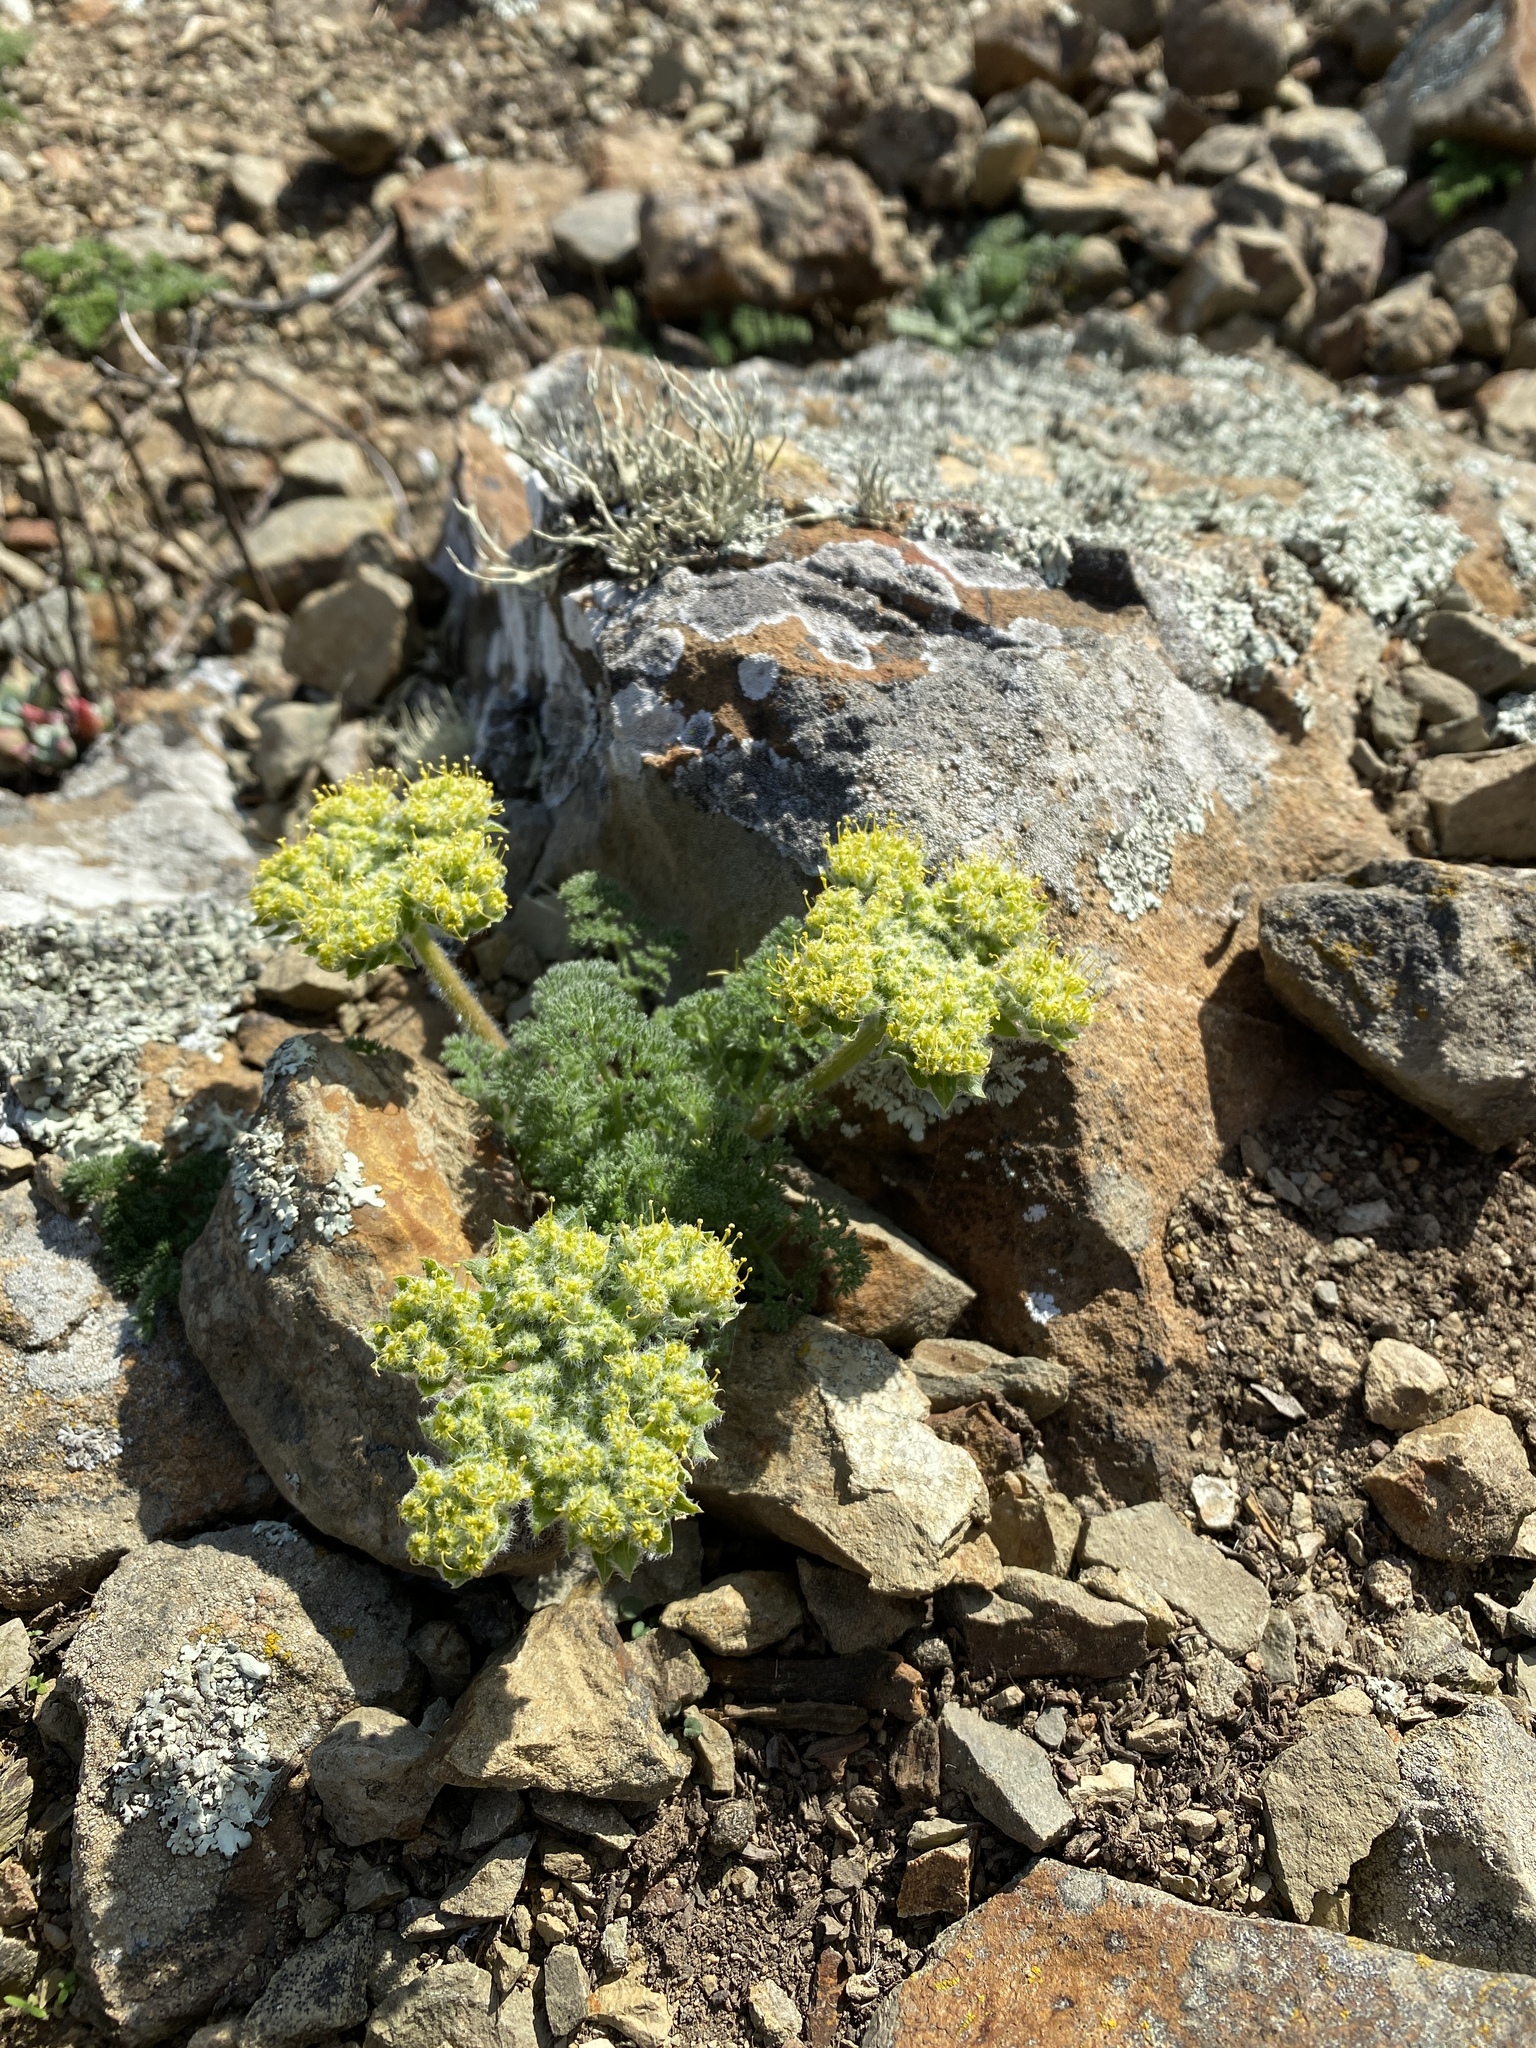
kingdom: Plantae
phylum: Tracheophyta
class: Magnoliopsida
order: Apiales
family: Apiaceae
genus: Lomatium
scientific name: Lomatium dasycarpum
